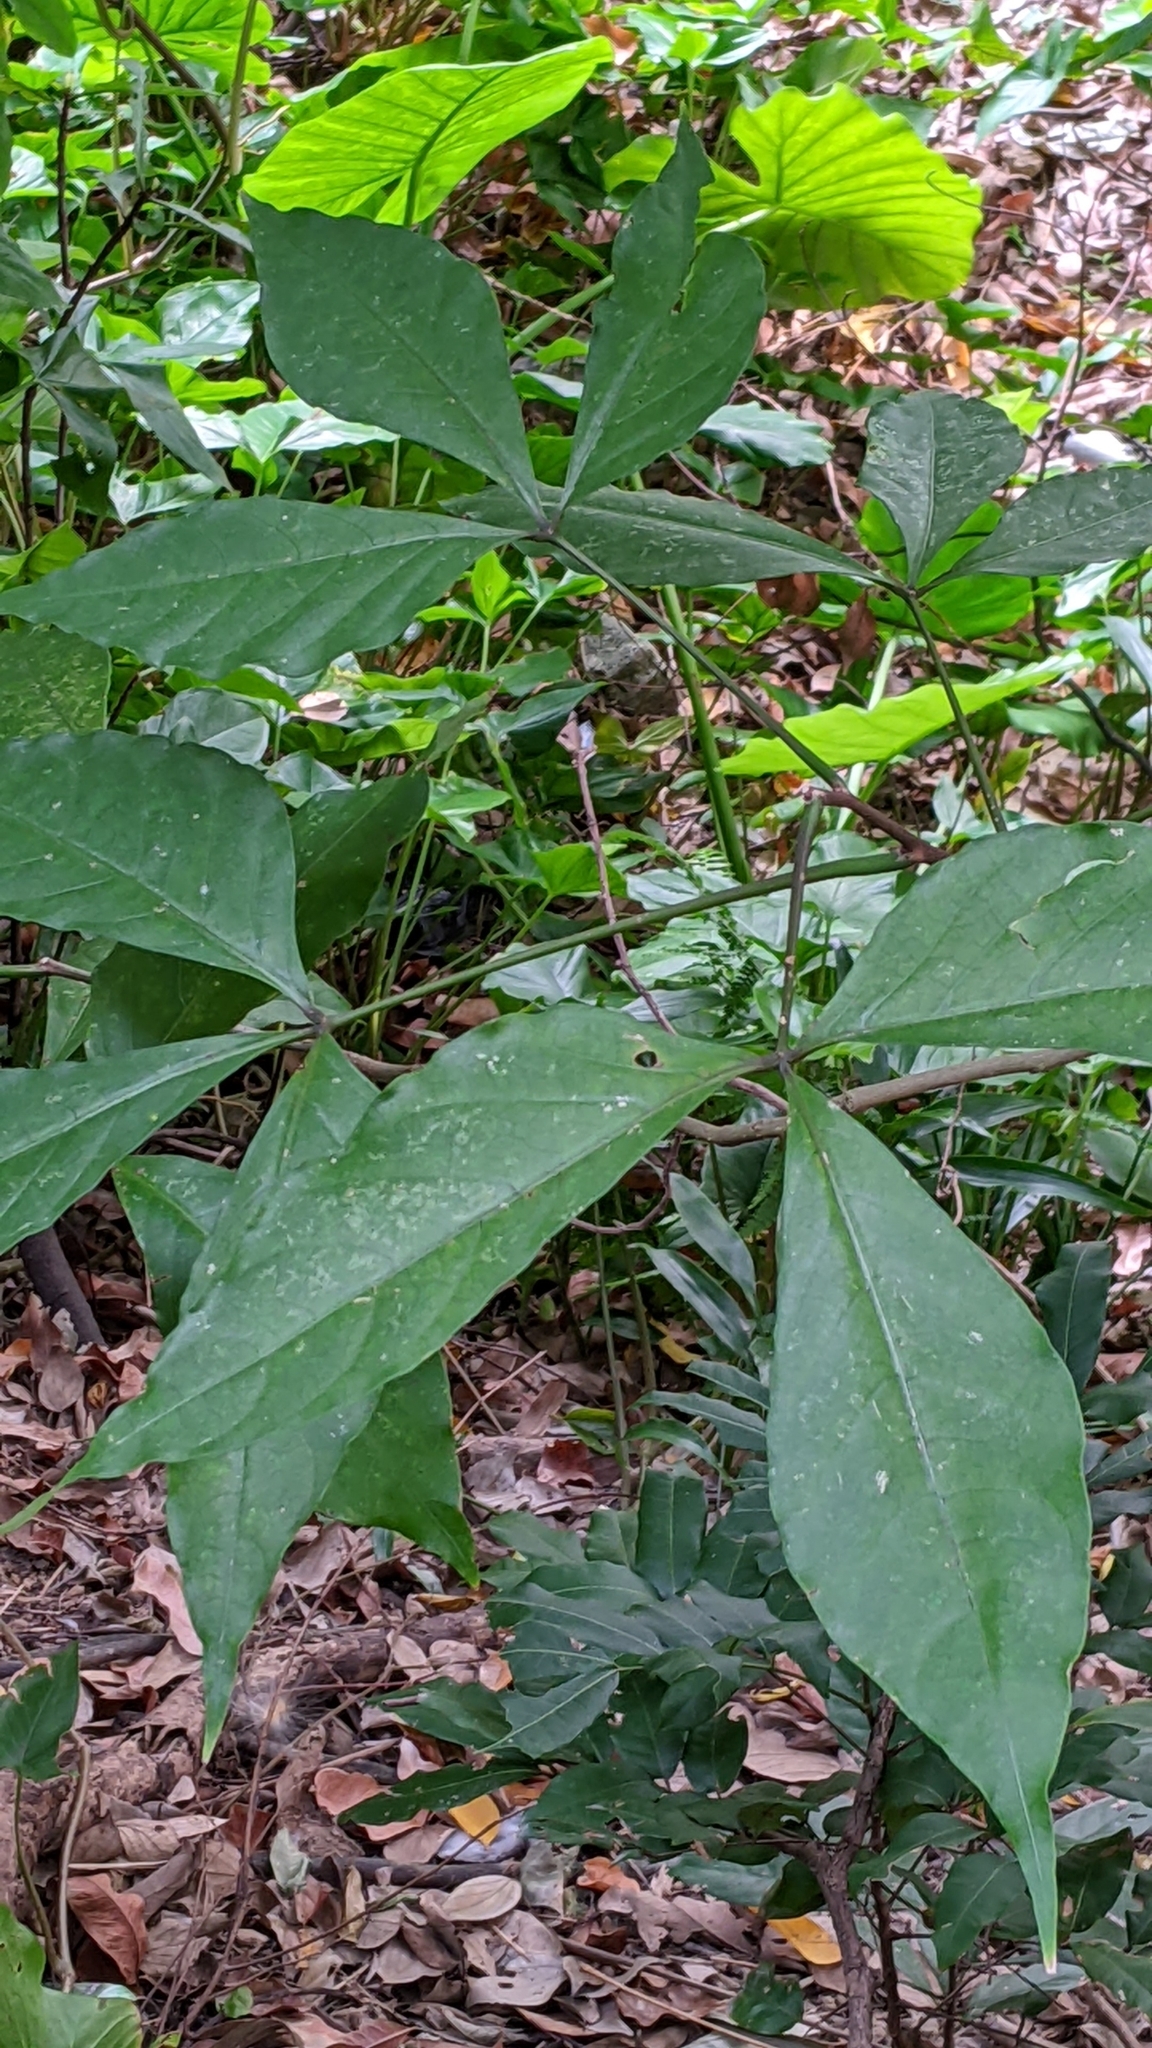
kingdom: Plantae
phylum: Tracheophyta
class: Magnoliopsida
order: Brassicales
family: Capparaceae
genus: Crateva
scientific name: Crateva adansonii
